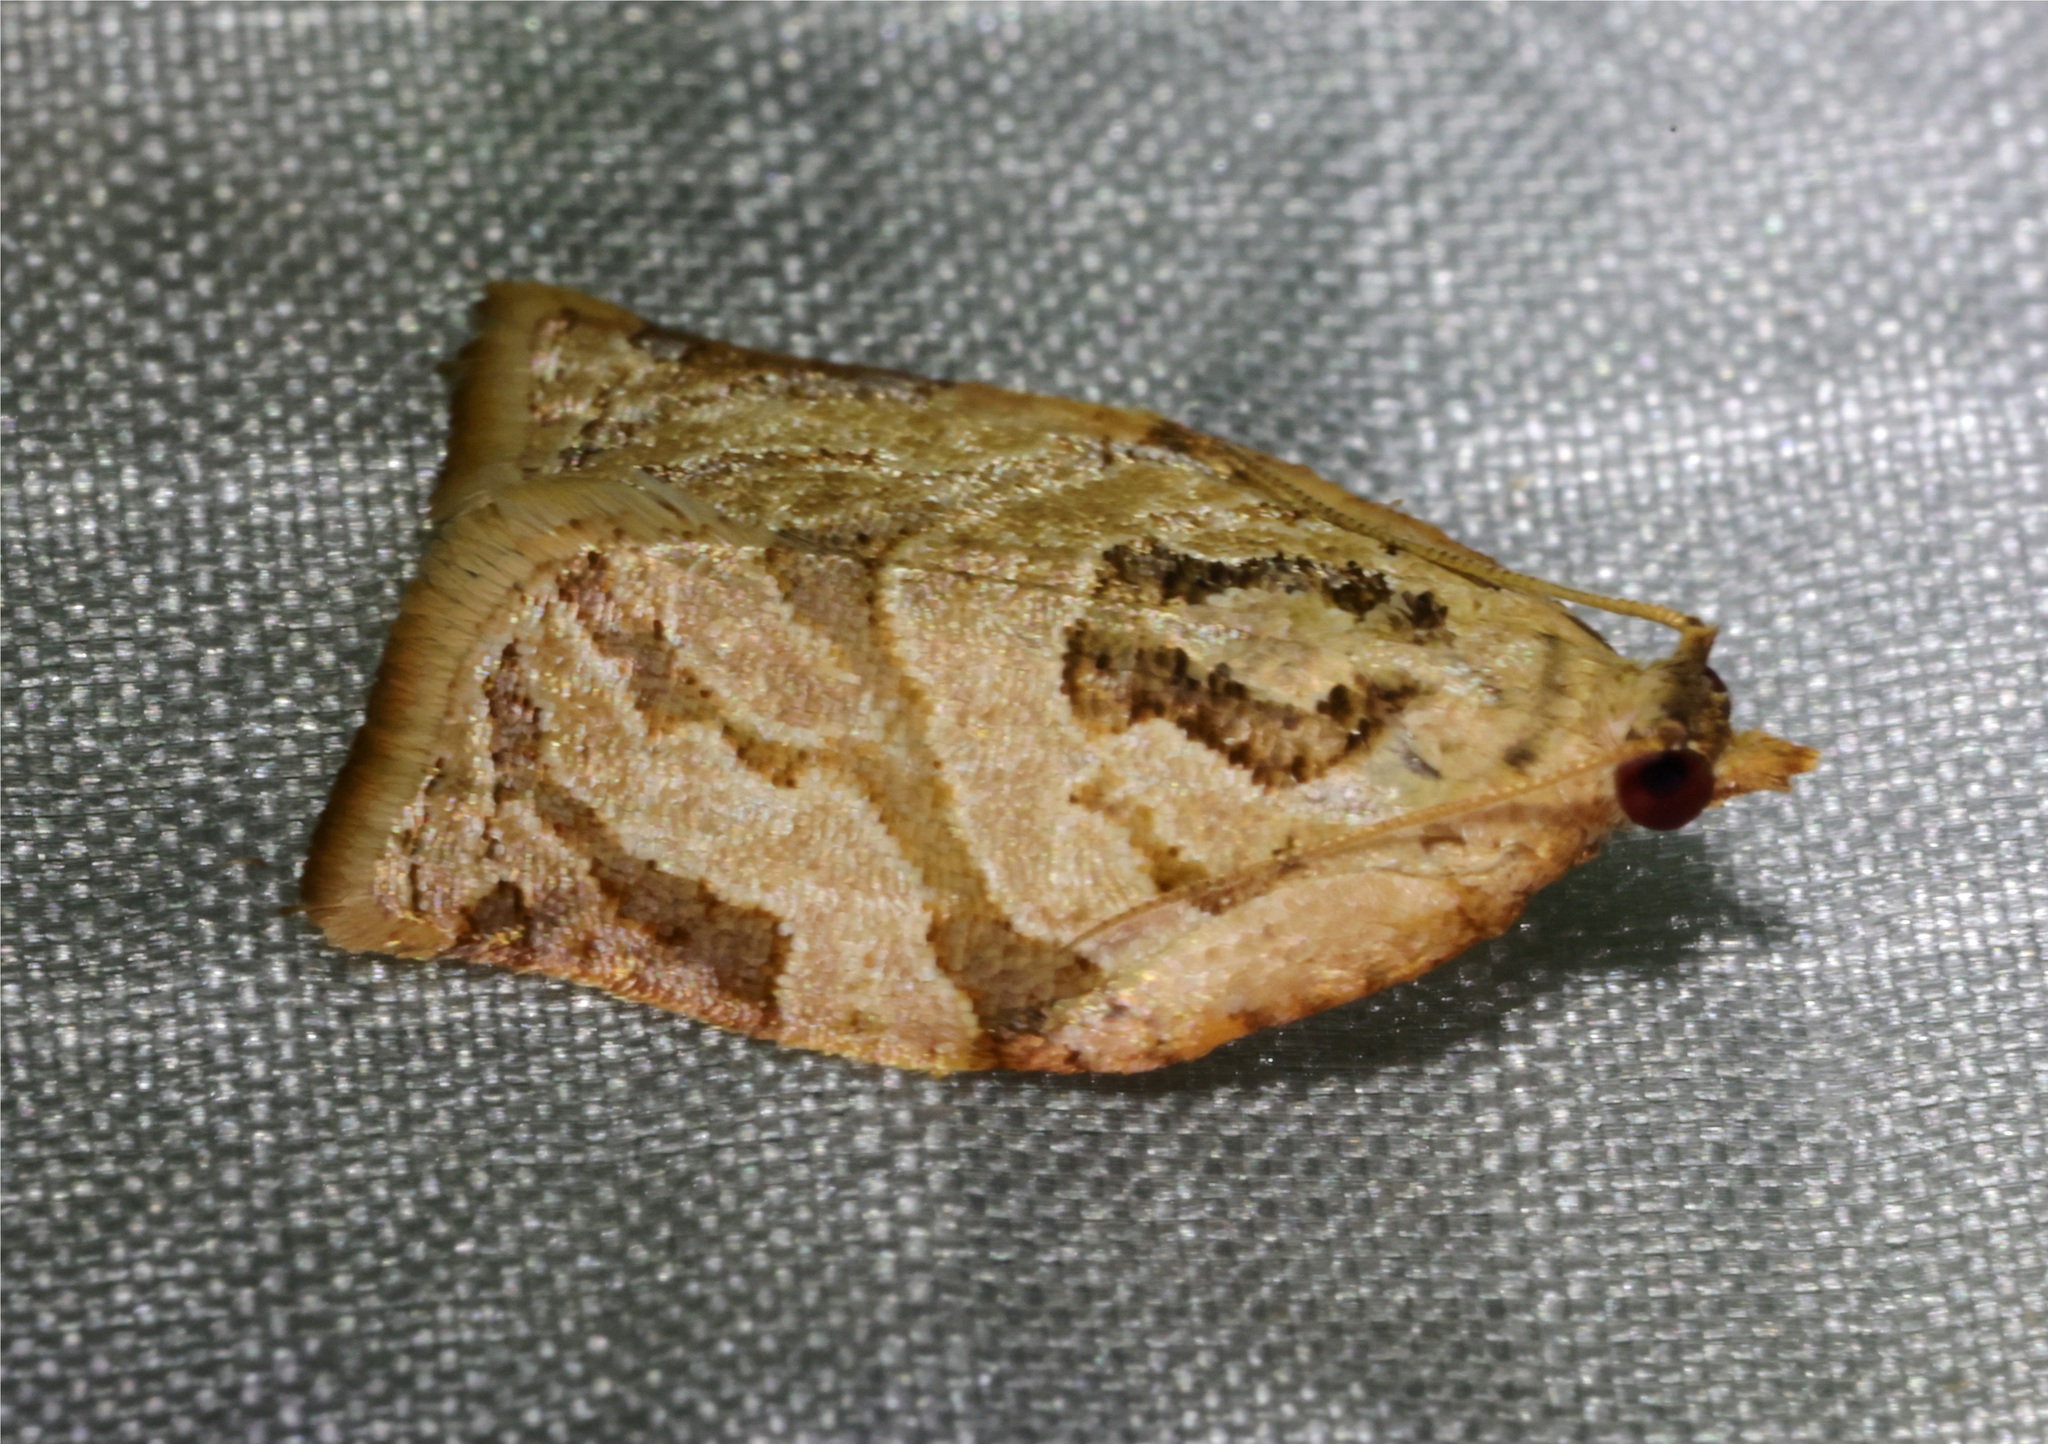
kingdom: Animalia
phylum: Arthropoda
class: Insecta
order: Lepidoptera
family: Tortricidae
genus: Adoxophyes
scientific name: Adoxophyes privatana
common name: Asian orchid tortrix
